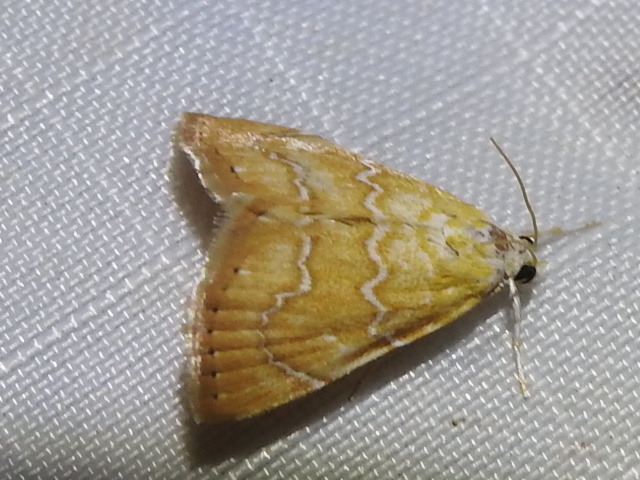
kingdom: Animalia
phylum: Arthropoda
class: Insecta
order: Lepidoptera
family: Crambidae
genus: Glaphyria
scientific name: Glaphyria sesquistrialis
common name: White-roped glaphyria
